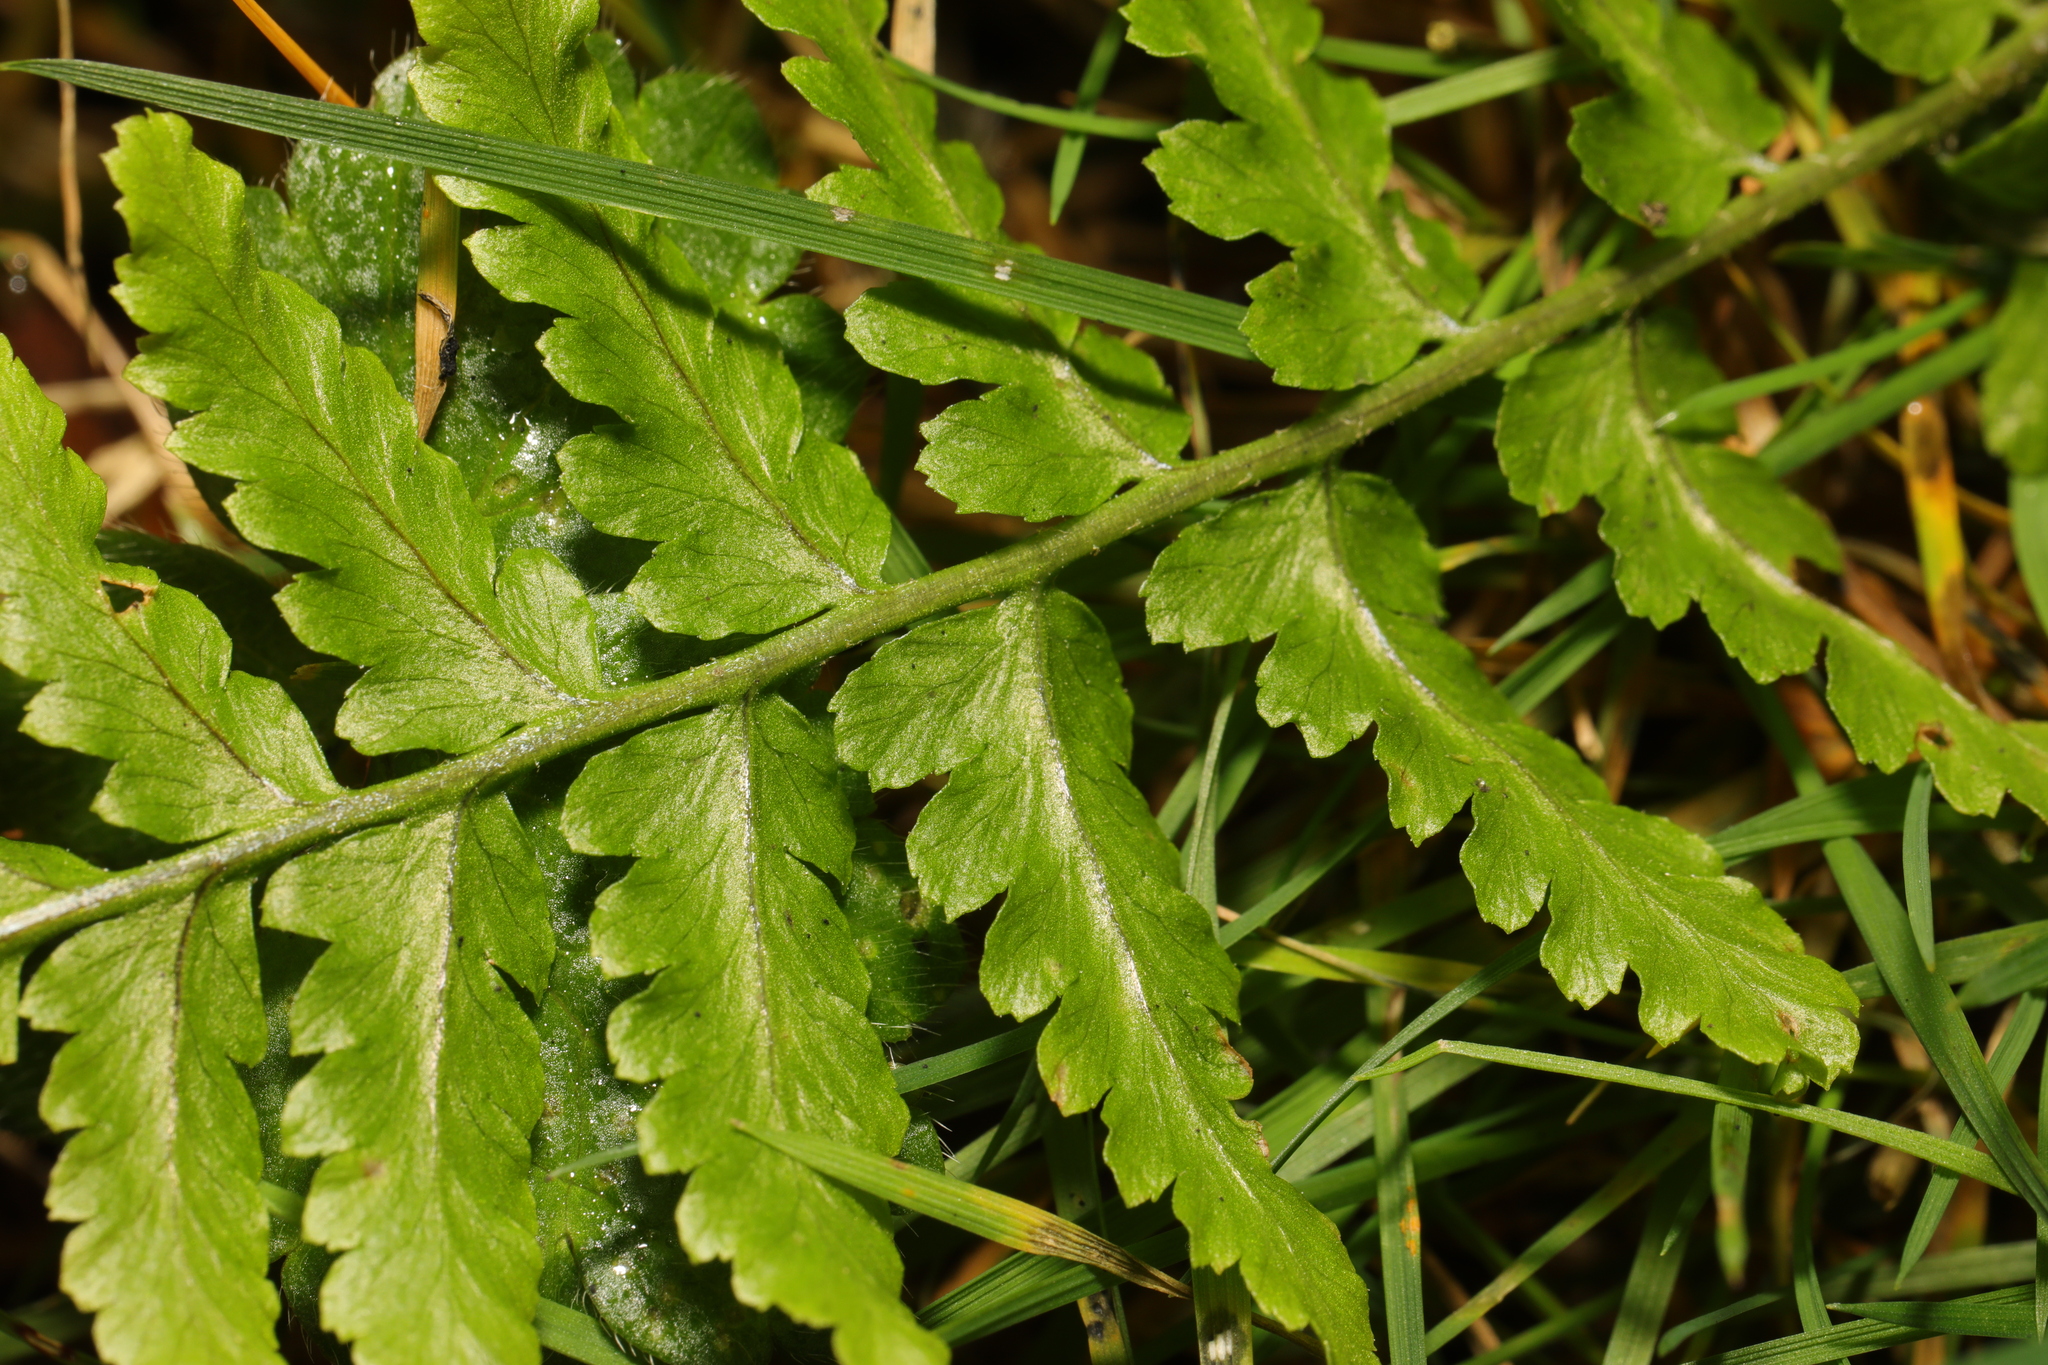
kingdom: Plantae
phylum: Tracheophyta
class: Polypodiopsida
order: Polypodiales
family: Dryopteridaceae
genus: Dryopteris
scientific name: Dryopteris
